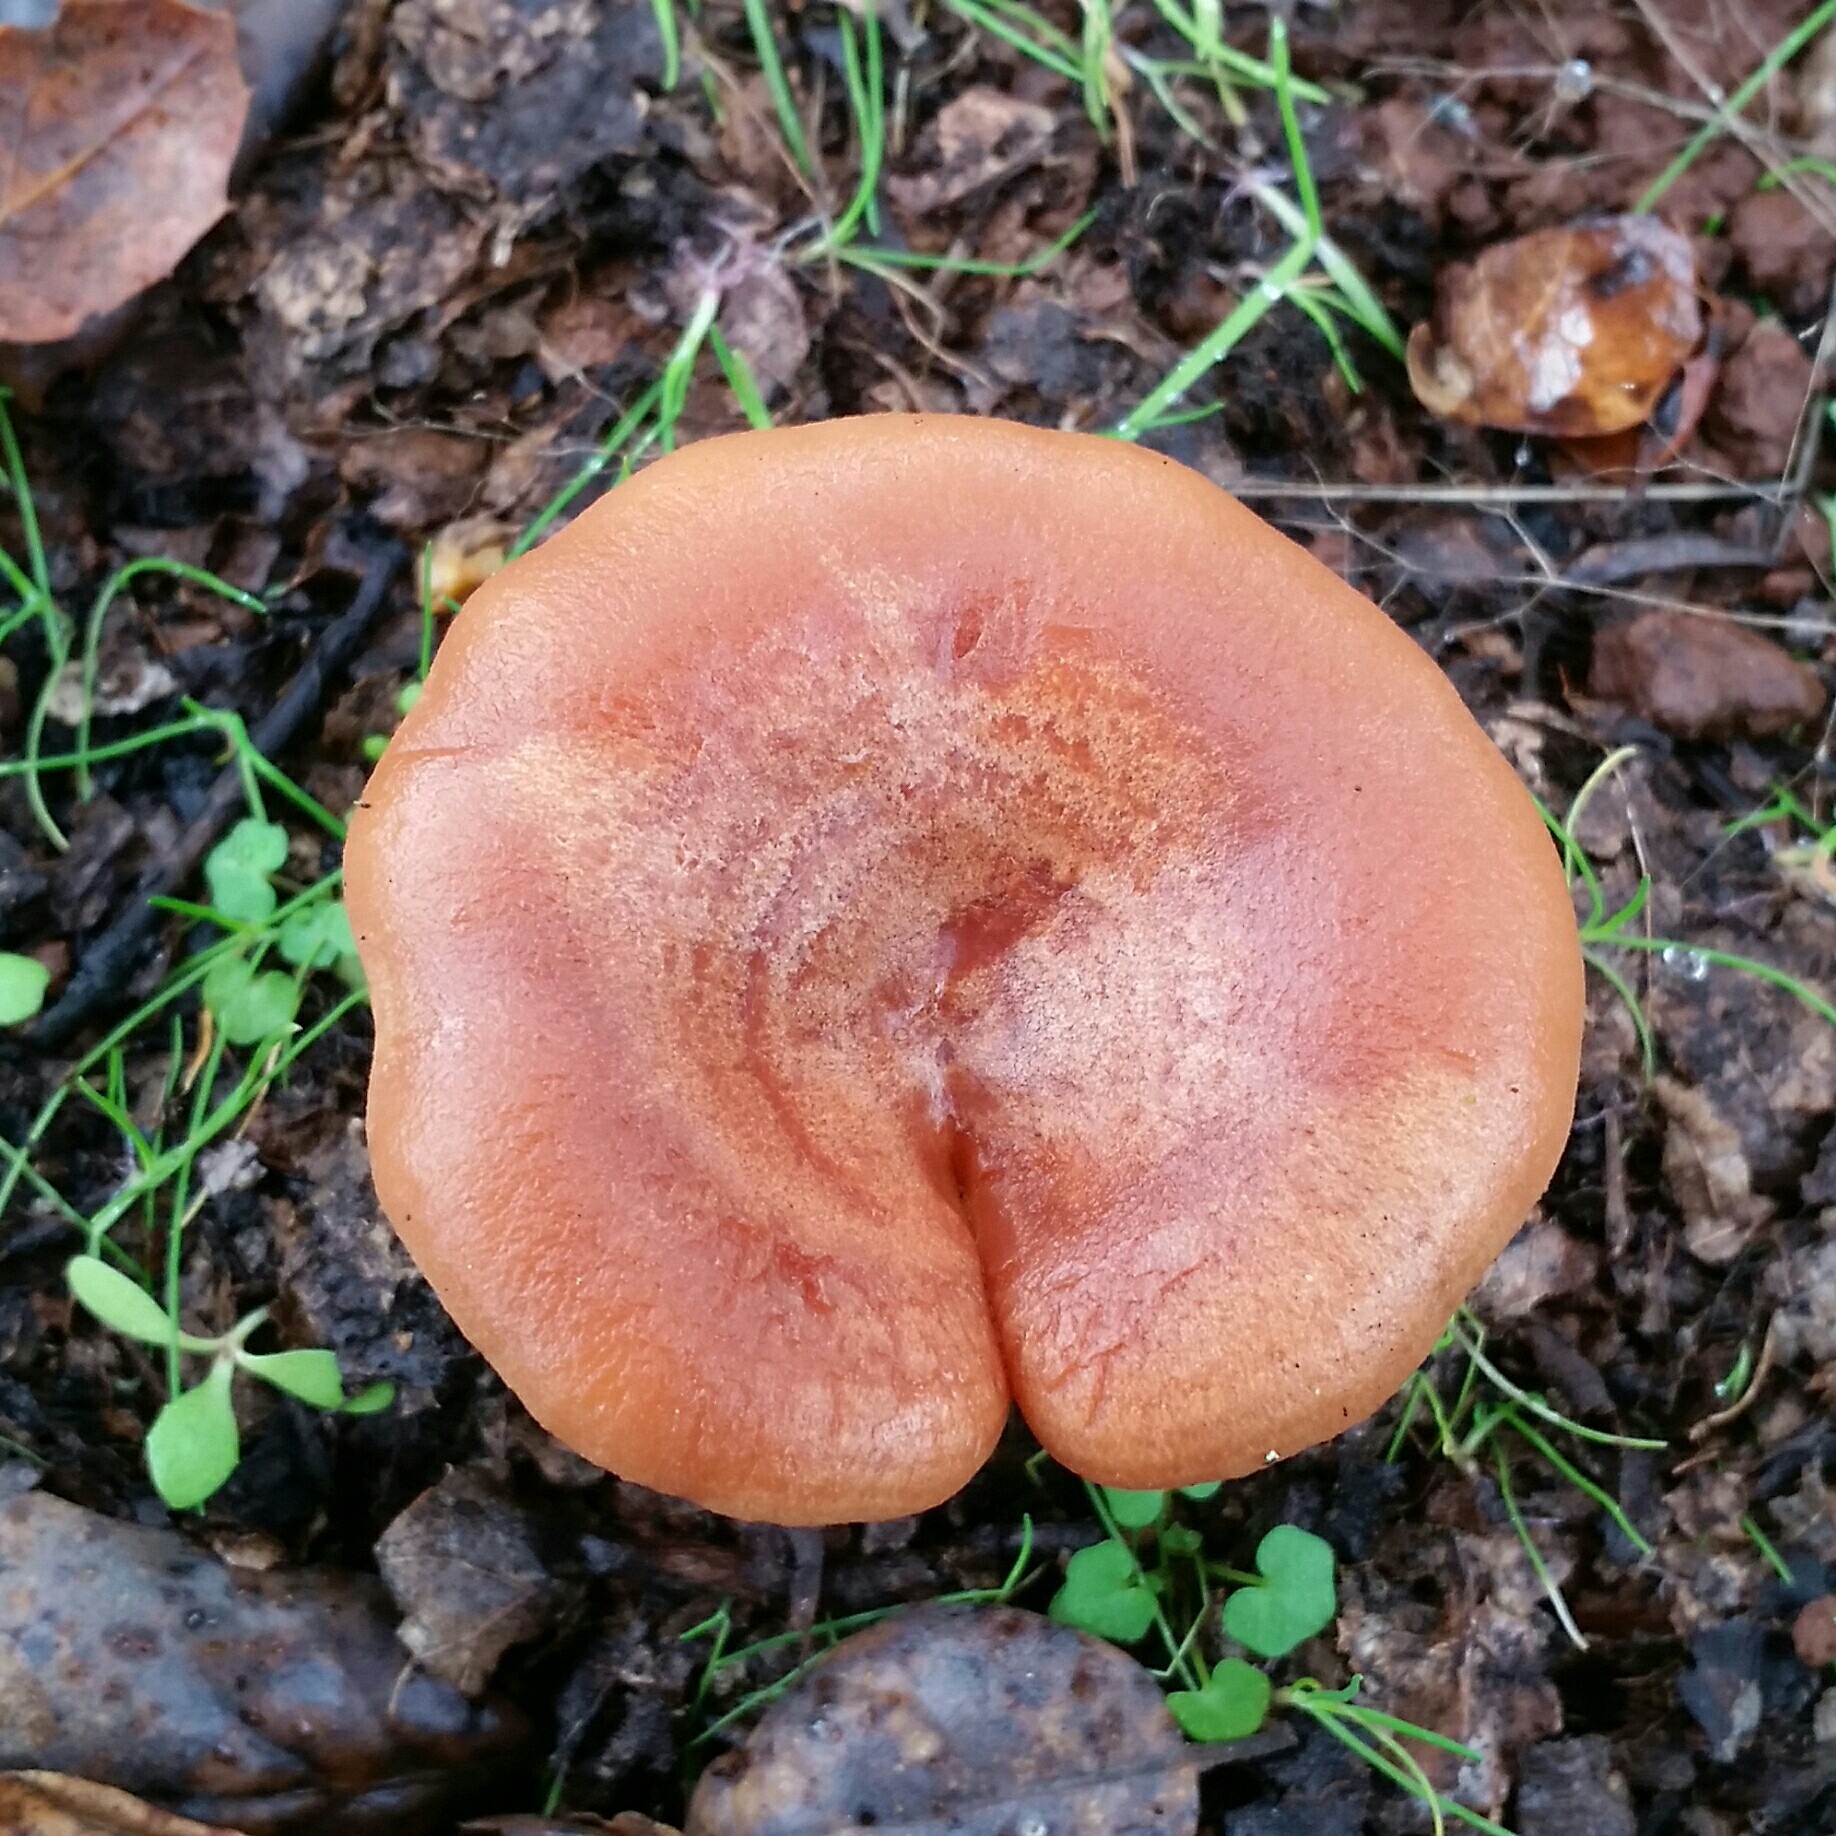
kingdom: Fungi
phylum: Basidiomycota
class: Agaricomycetes
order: Russulales
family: Russulaceae
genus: Lactarius
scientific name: Lactarius xanthogalactus
